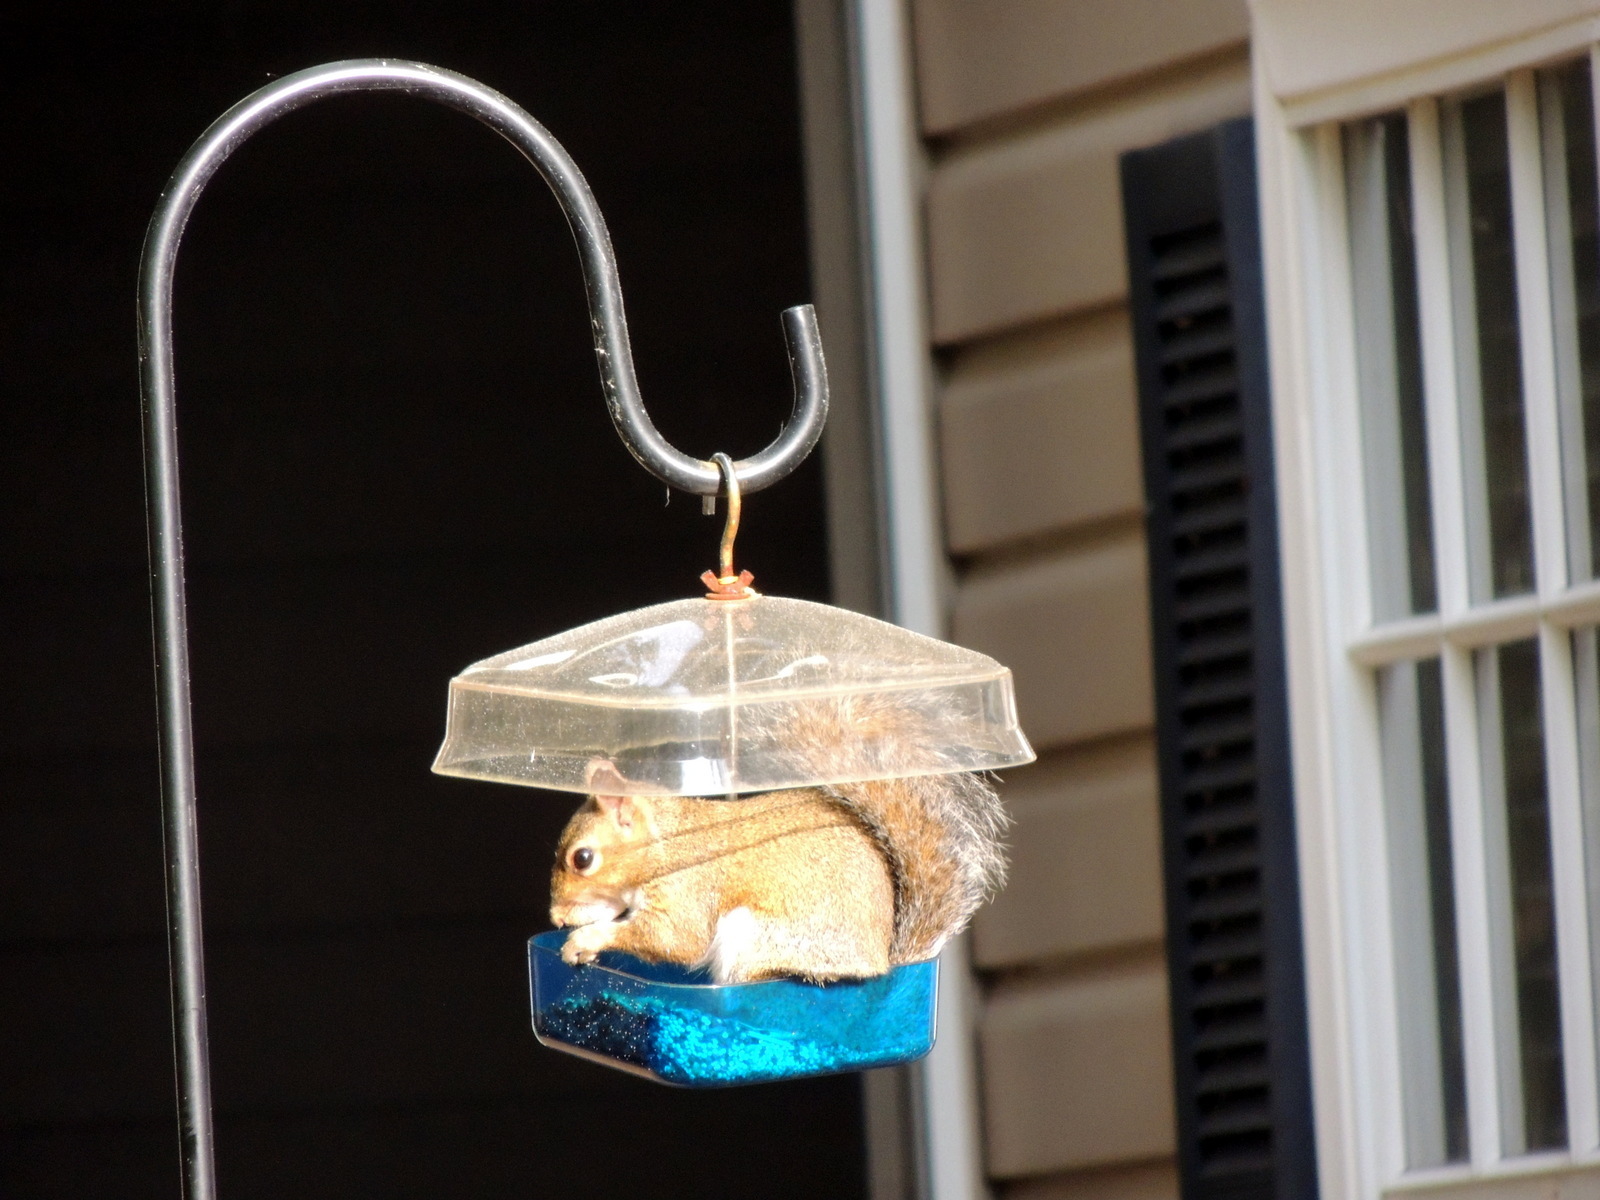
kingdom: Animalia
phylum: Chordata
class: Mammalia
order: Rodentia
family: Sciuridae
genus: Sciurus
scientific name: Sciurus carolinensis
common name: Eastern gray squirrel
